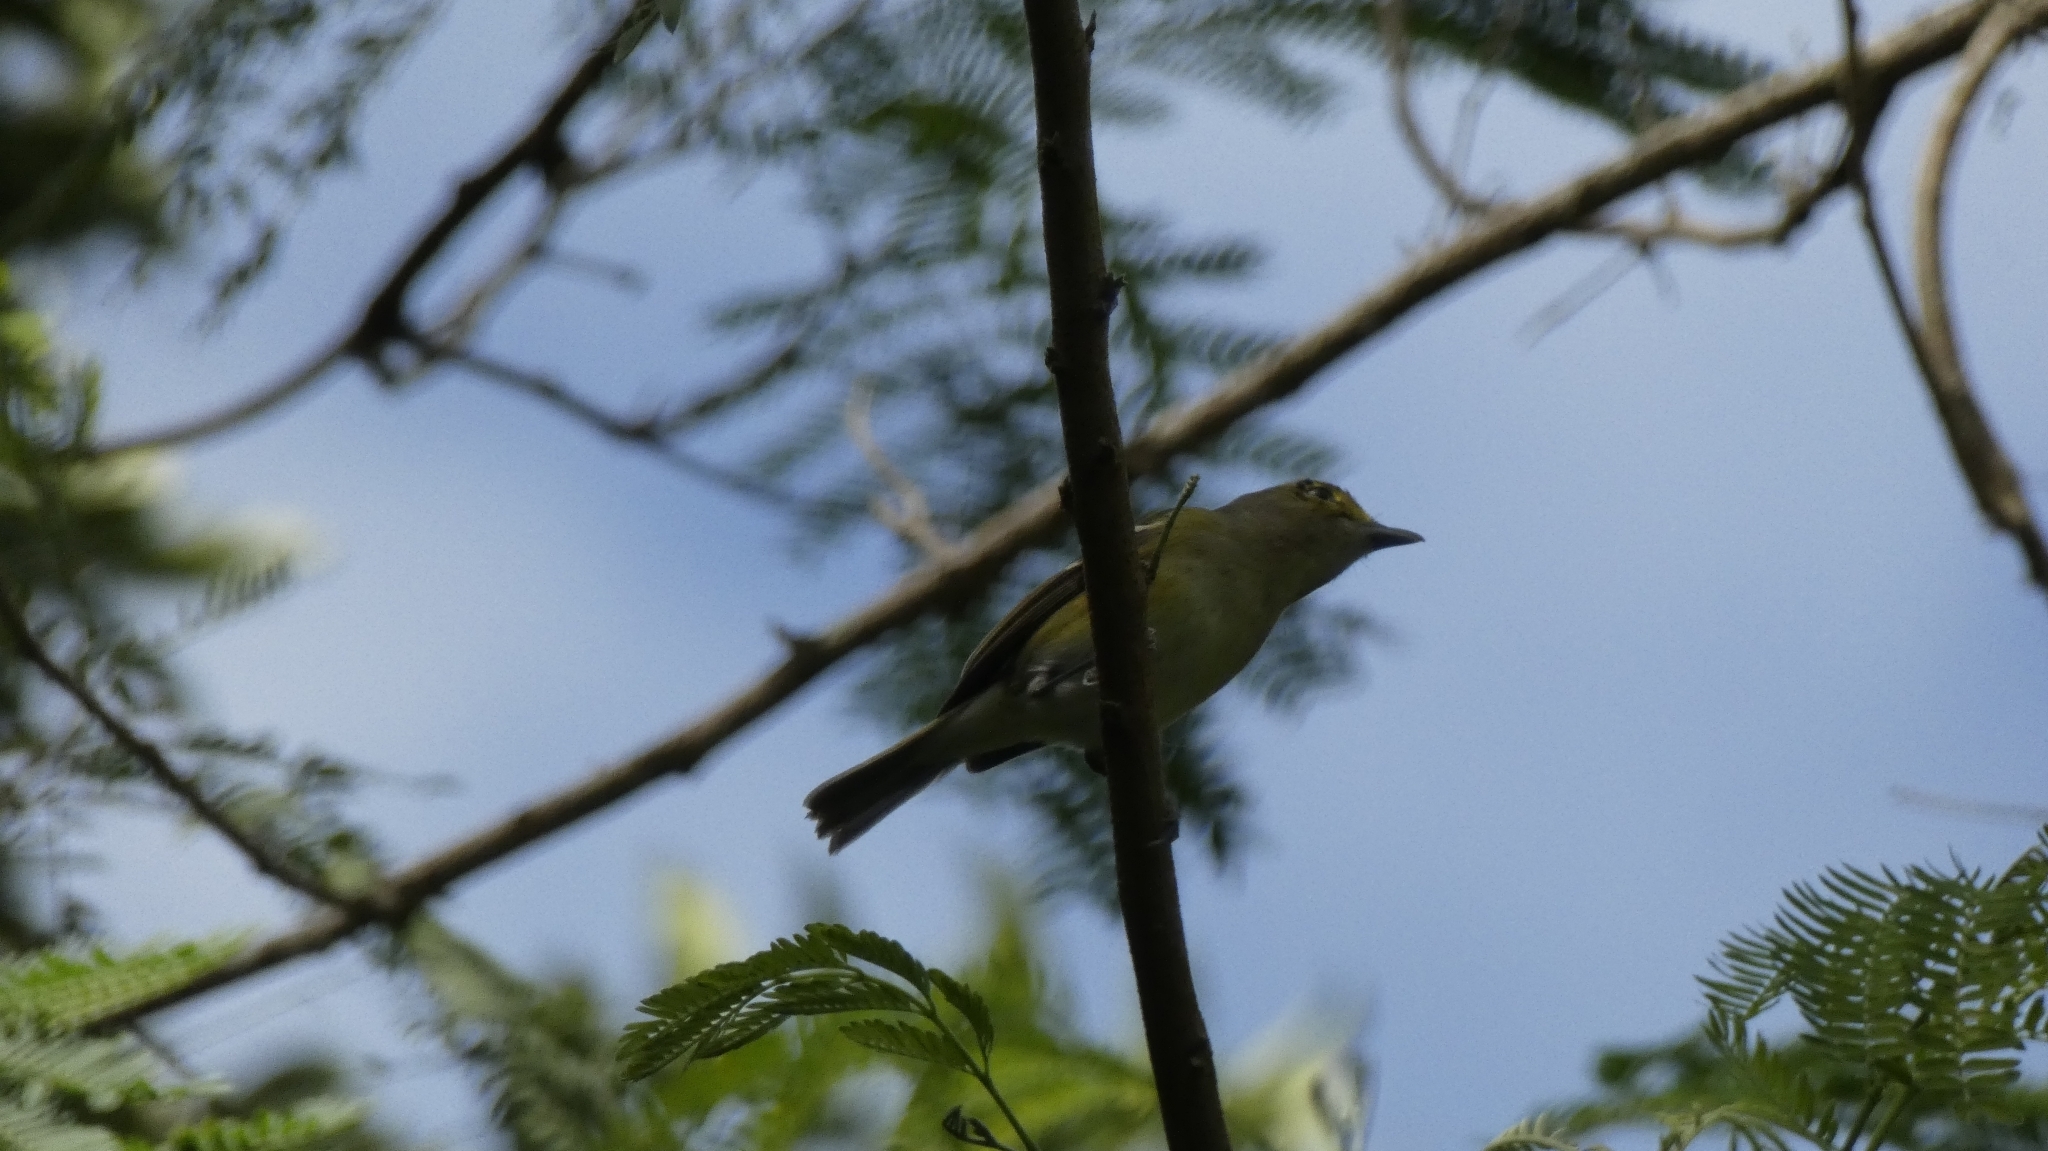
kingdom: Animalia
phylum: Chordata
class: Aves
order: Passeriformes
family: Vireonidae
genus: Vireo
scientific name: Vireo griseus
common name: White-eyed vireo
